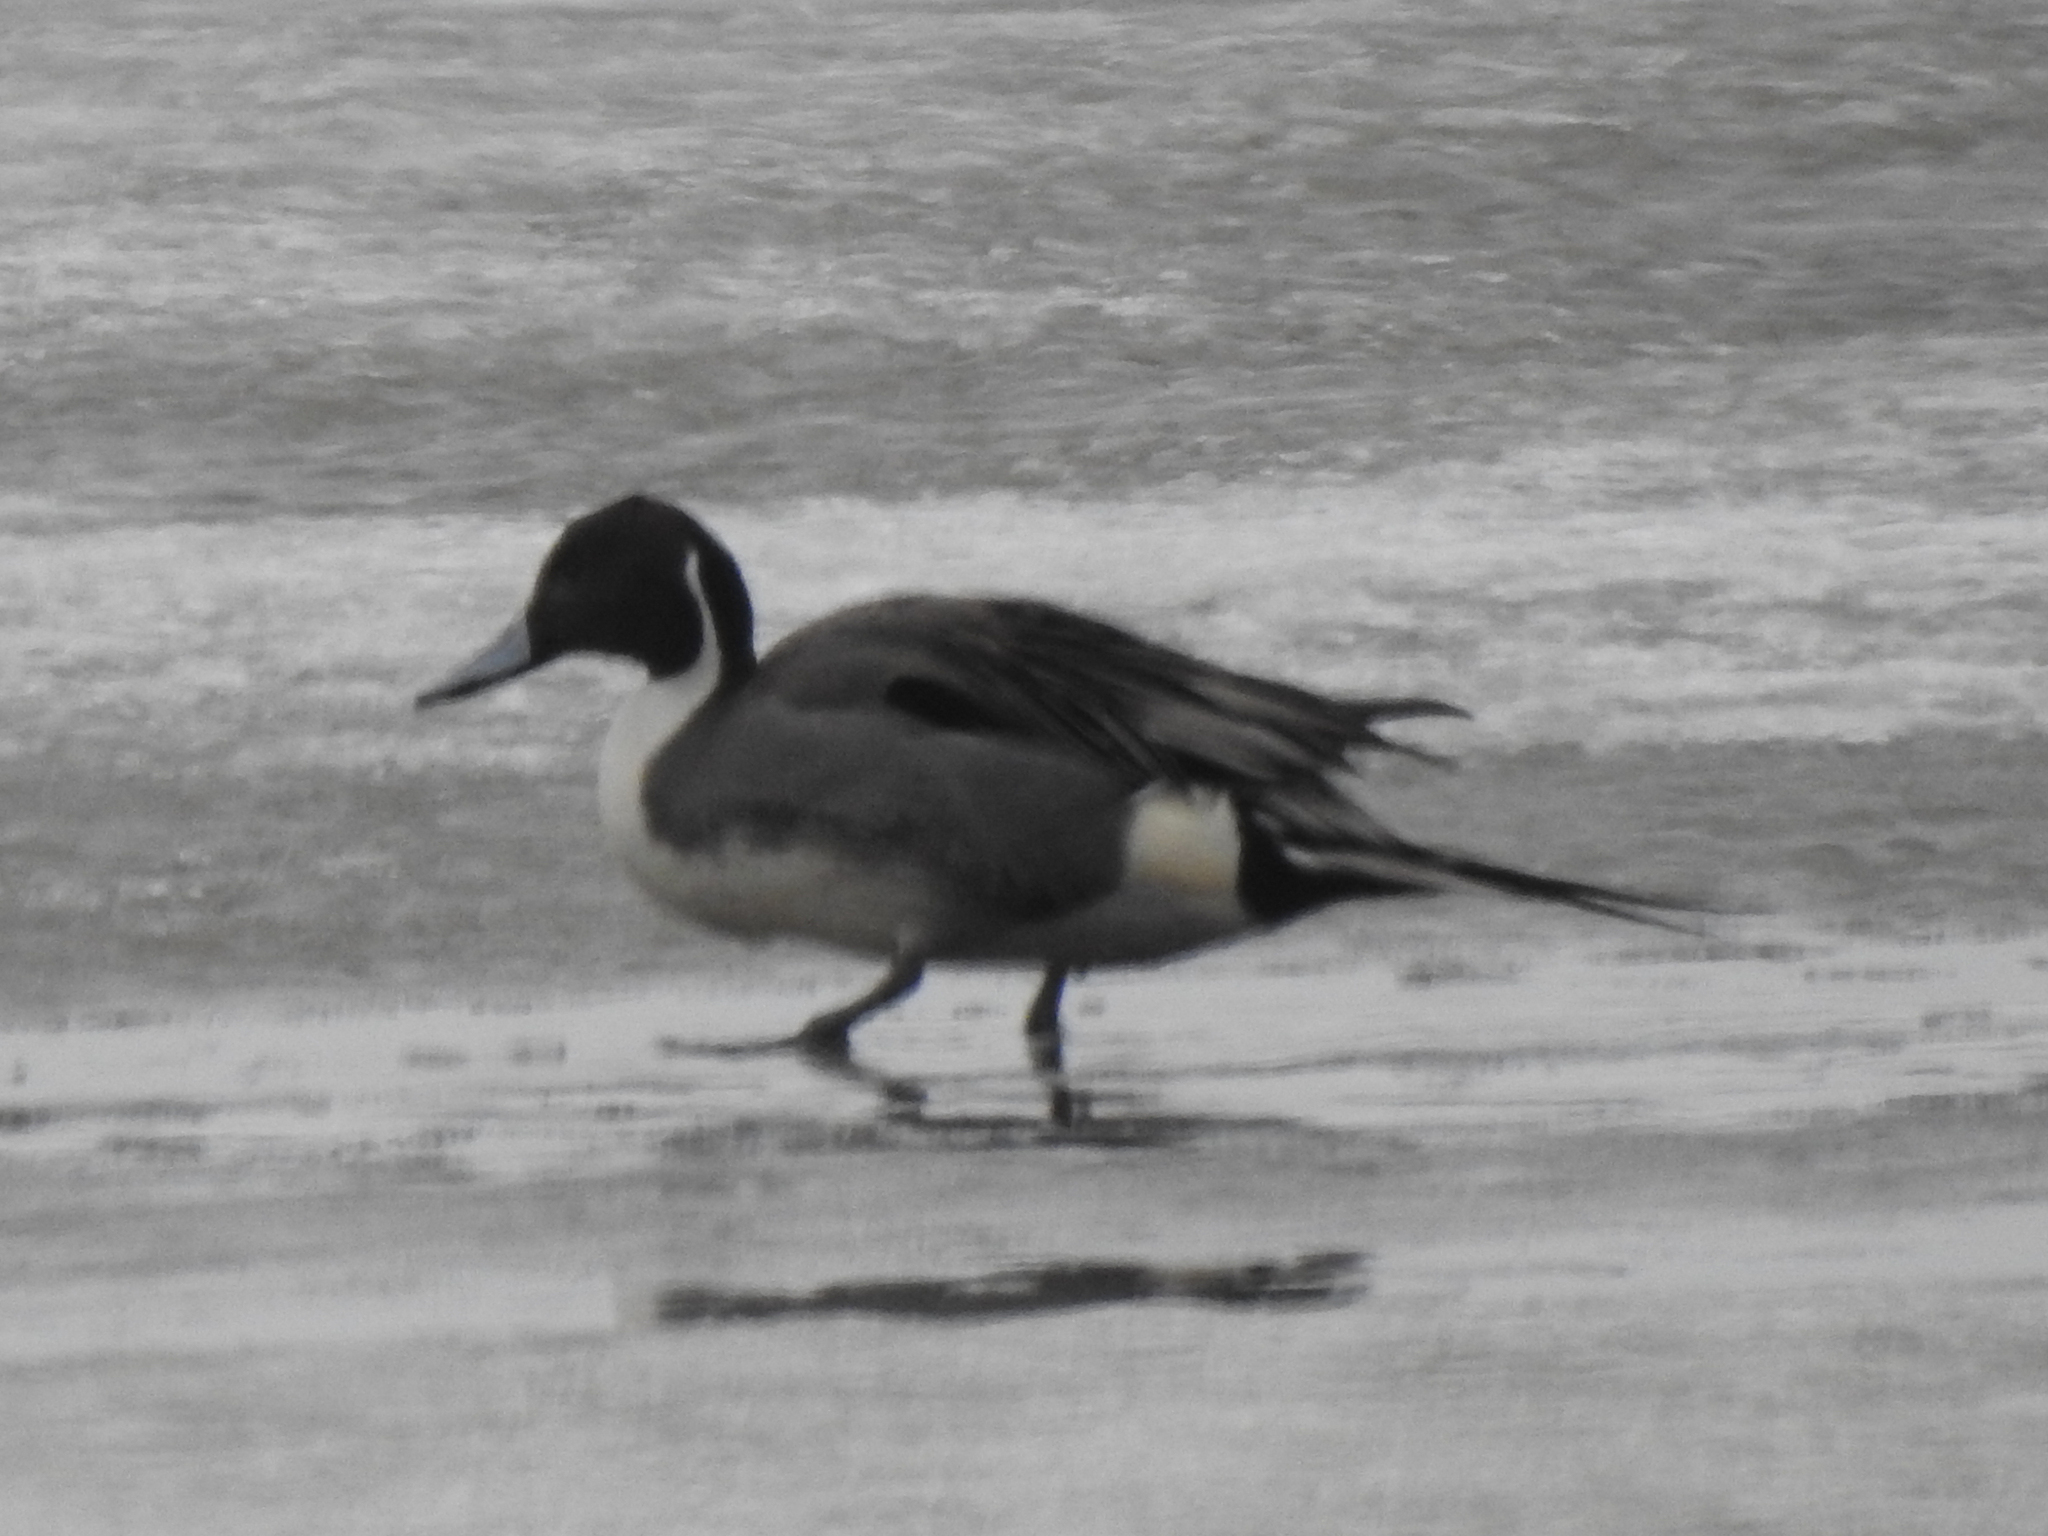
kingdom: Animalia
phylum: Chordata
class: Aves
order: Anseriformes
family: Anatidae
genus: Anas
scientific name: Anas acuta
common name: Northern pintail
